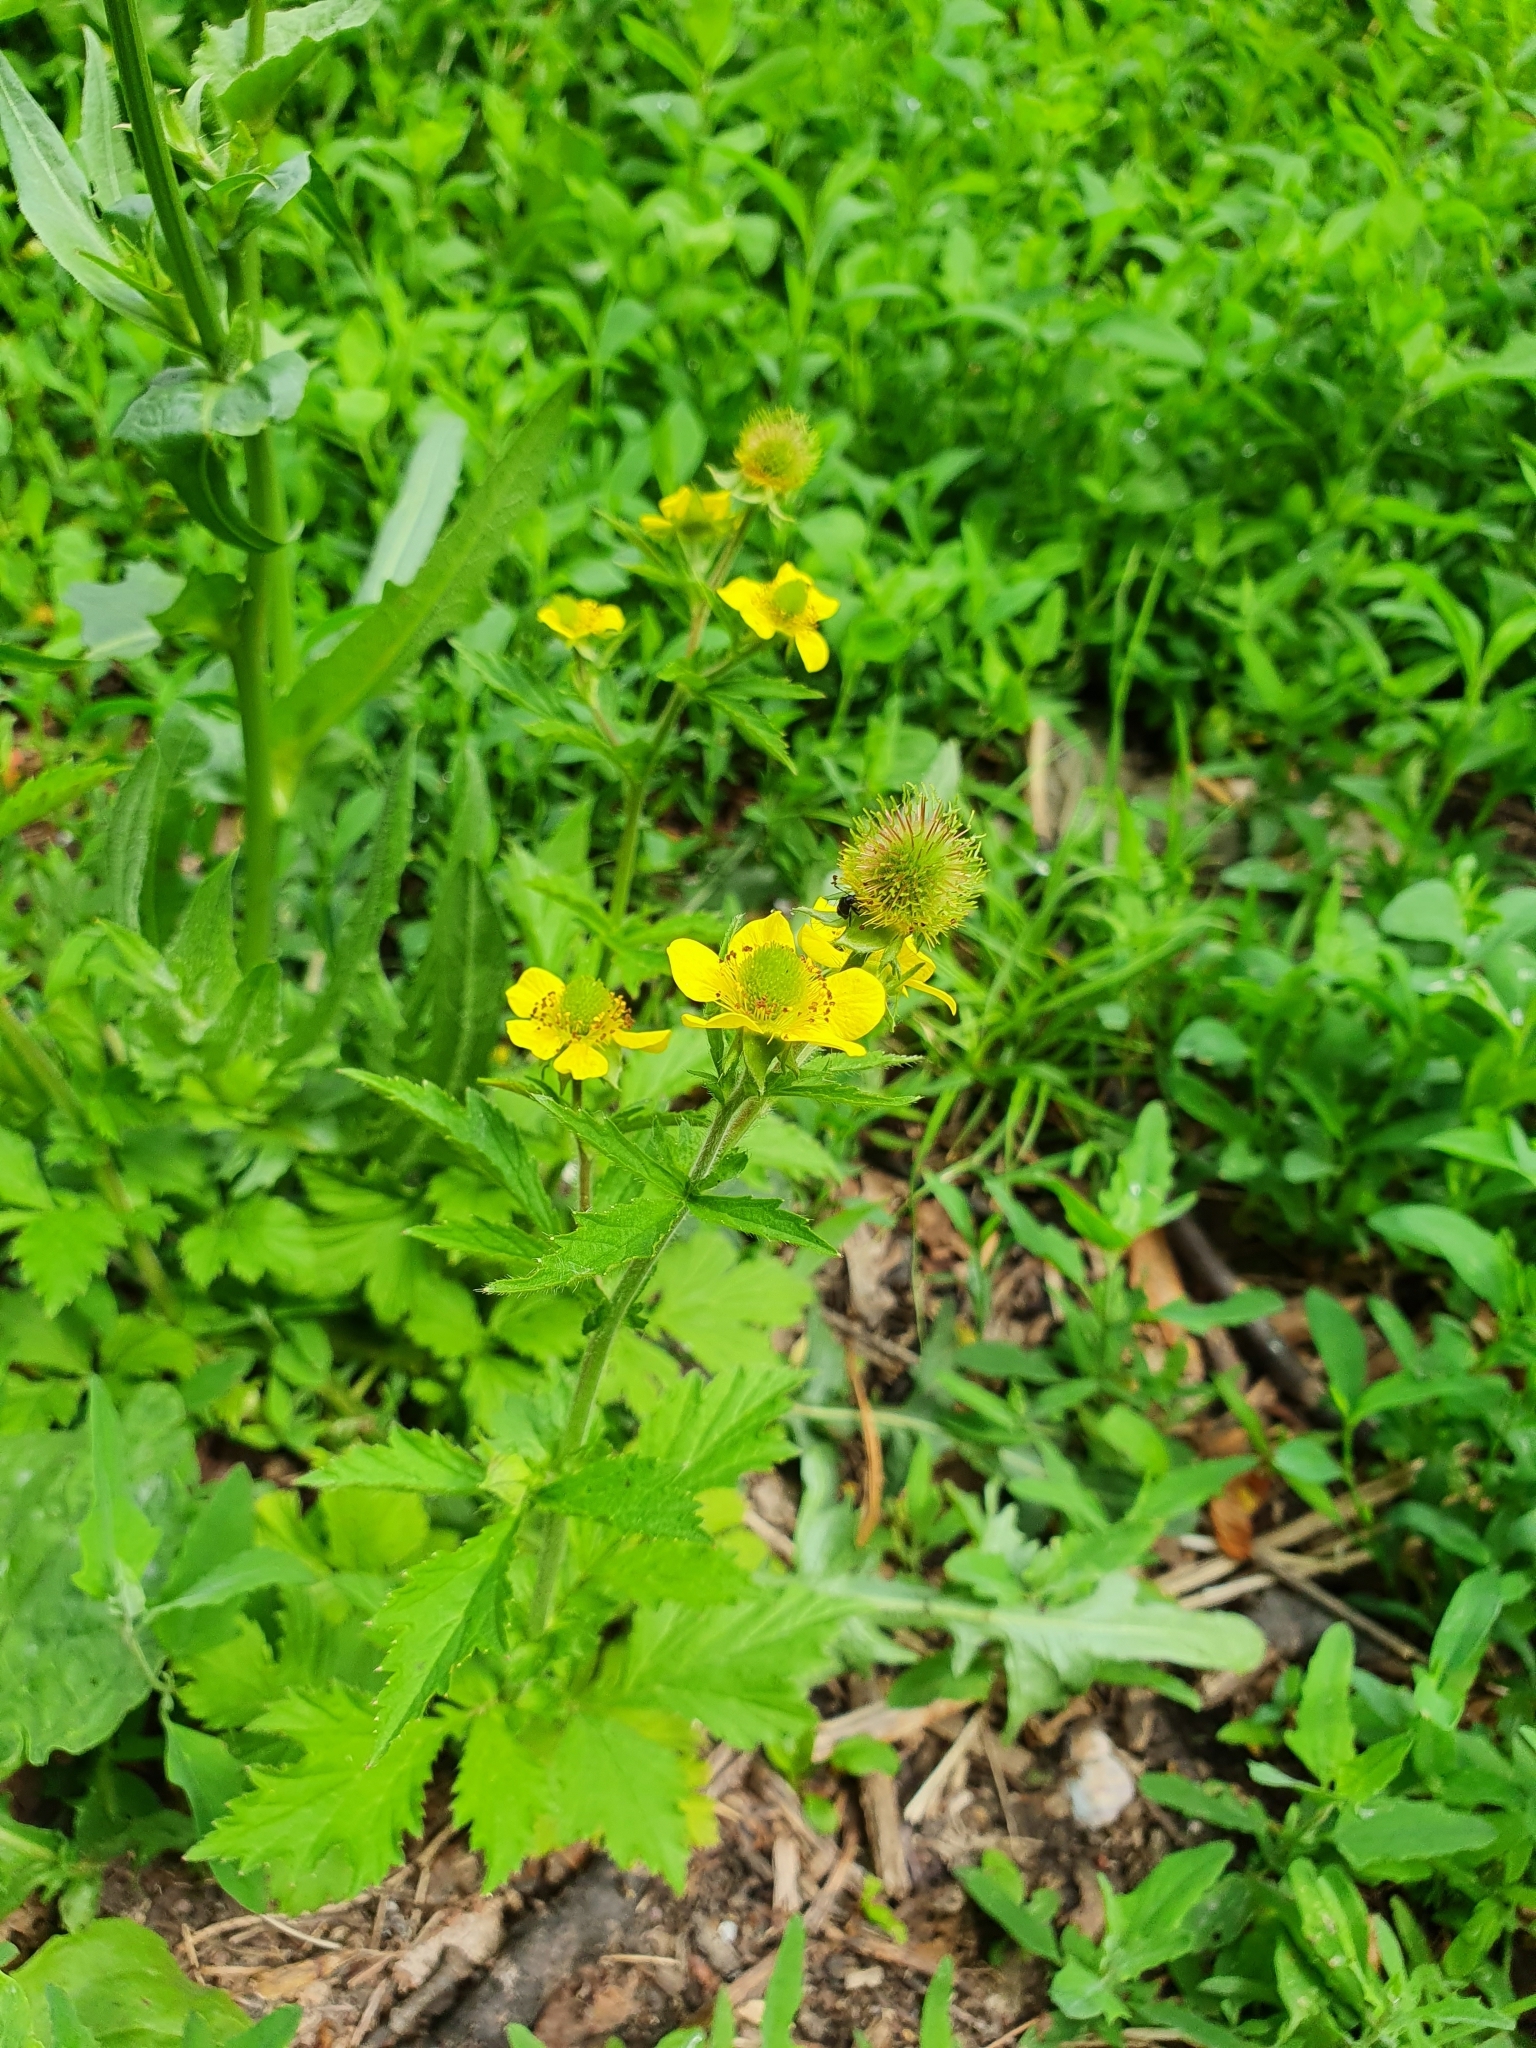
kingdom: Plantae
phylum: Tracheophyta
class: Magnoliopsida
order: Rosales
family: Rosaceae
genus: Geum
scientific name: Geum aleppicum
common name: Yellow avens
